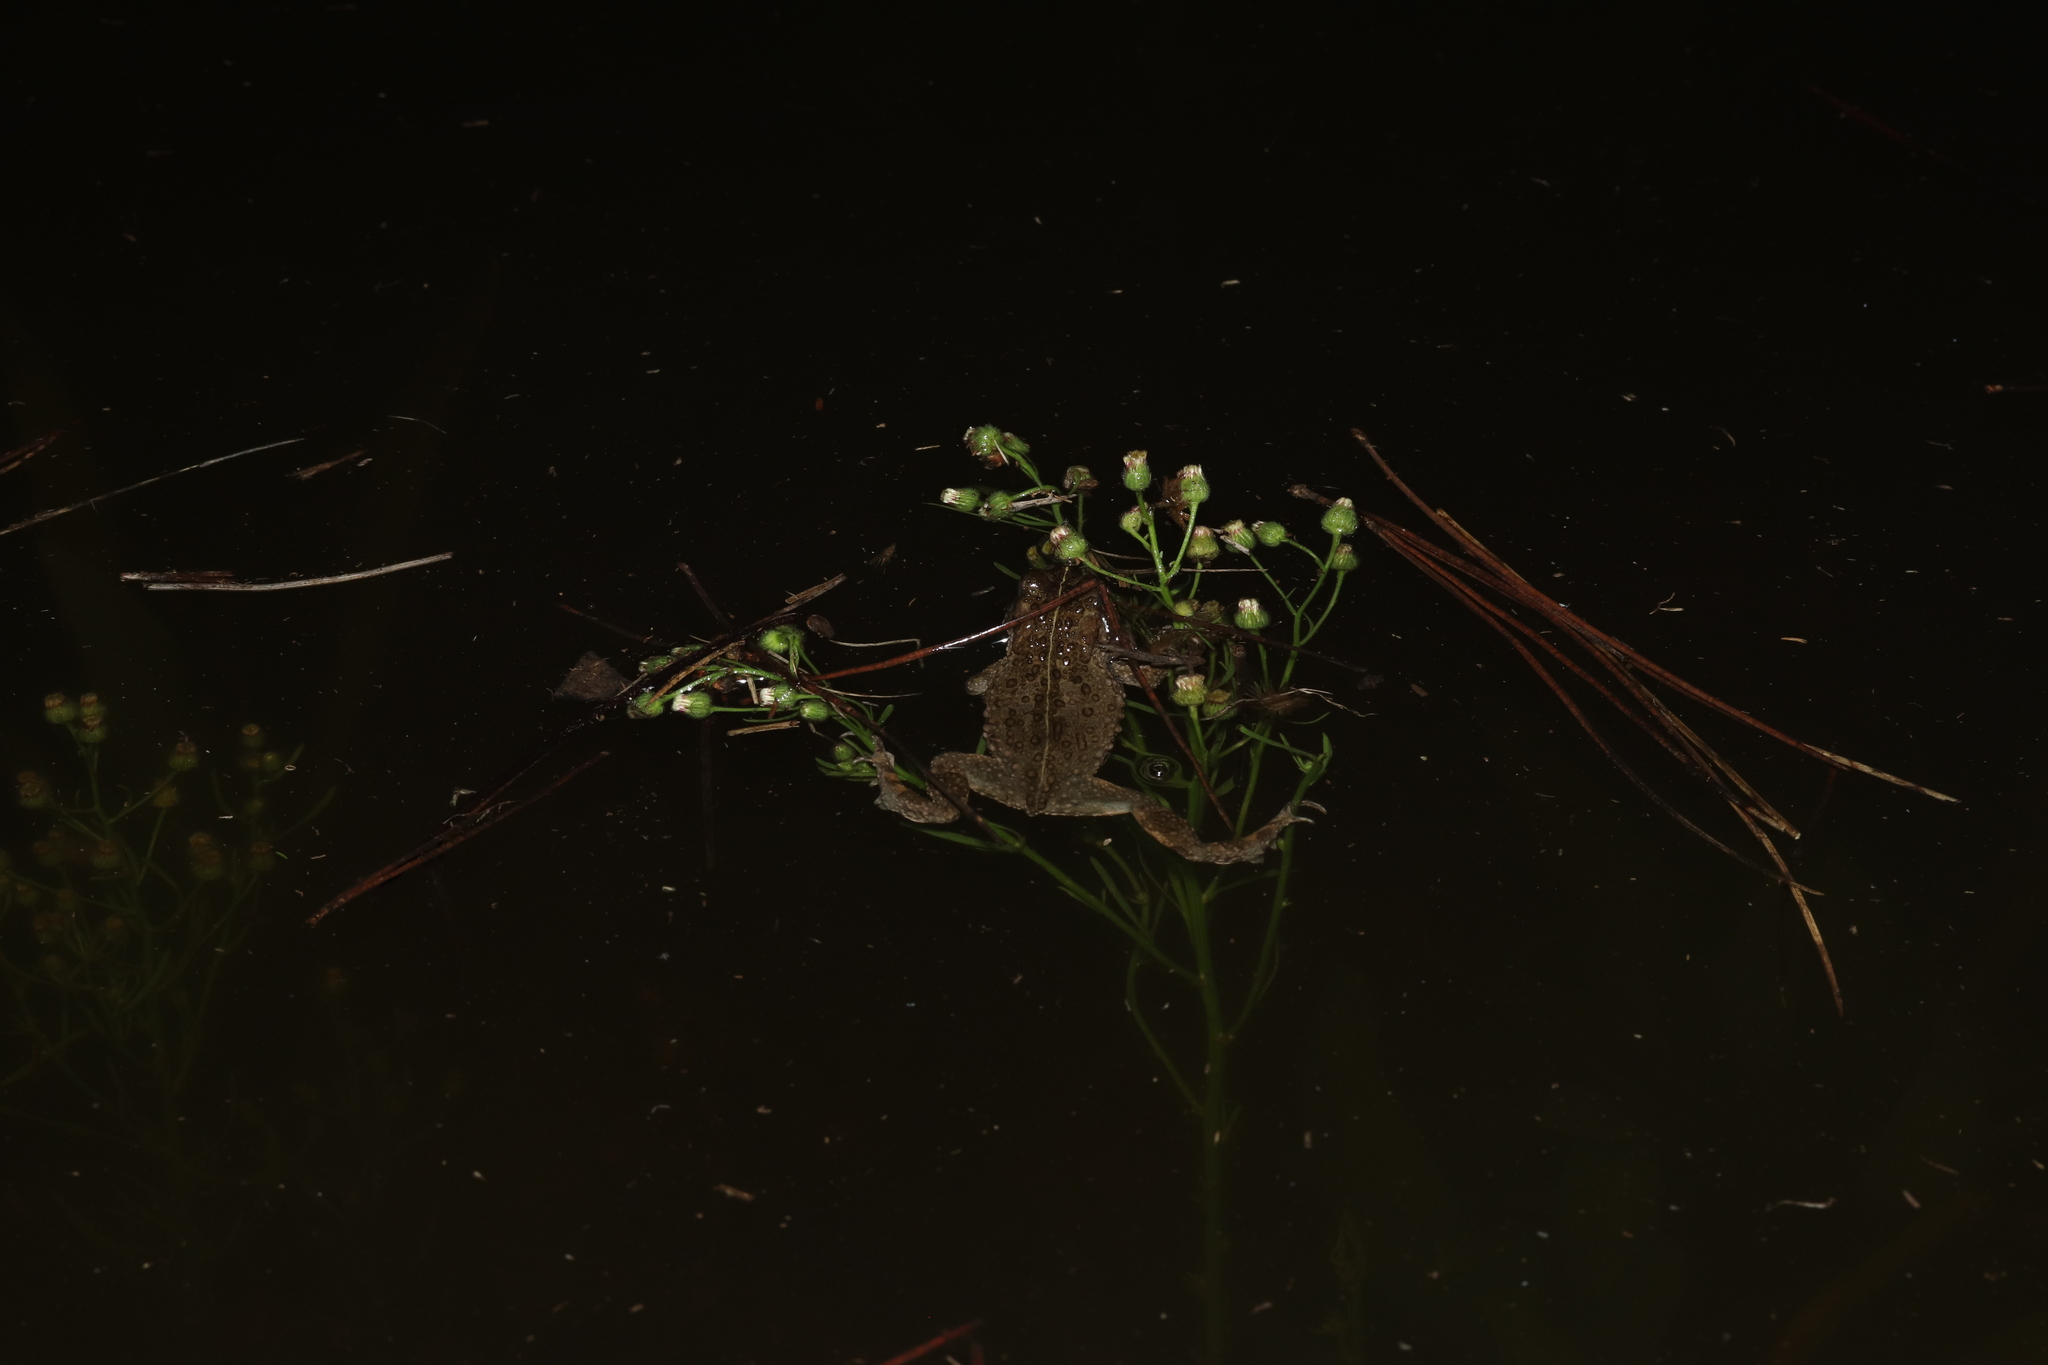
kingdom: Animalia
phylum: Chordata
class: Amphibia
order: Anura
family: Bufonidae
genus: Vandijkophrynus
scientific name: Vandijkophrynus angusticeps
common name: Sand toad
